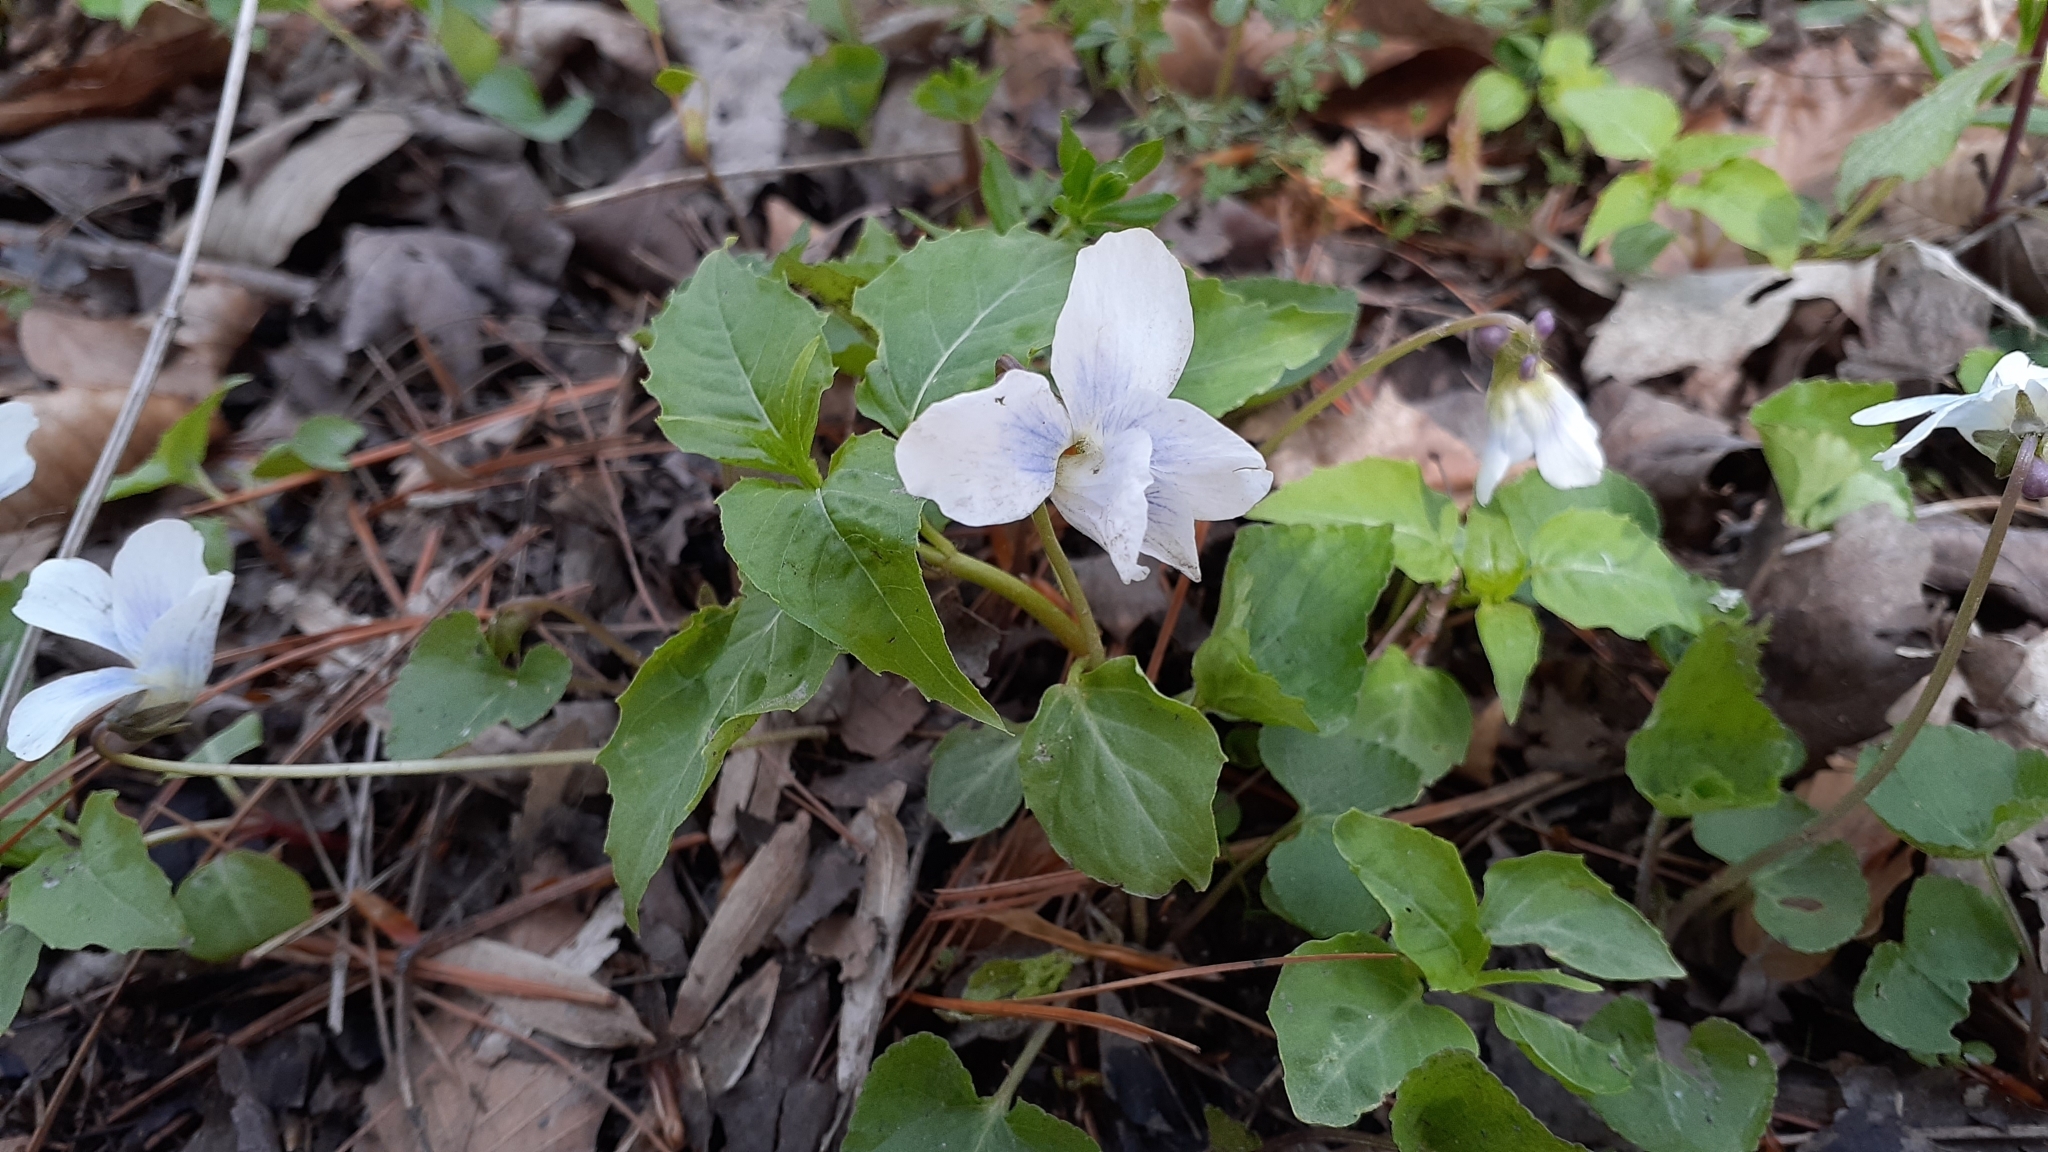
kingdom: Plantae
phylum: Tracheophyta
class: Magnoliopsida
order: Malpighiales
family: Violaceae
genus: Viola
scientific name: Viola sororia
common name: Dooryard violet
